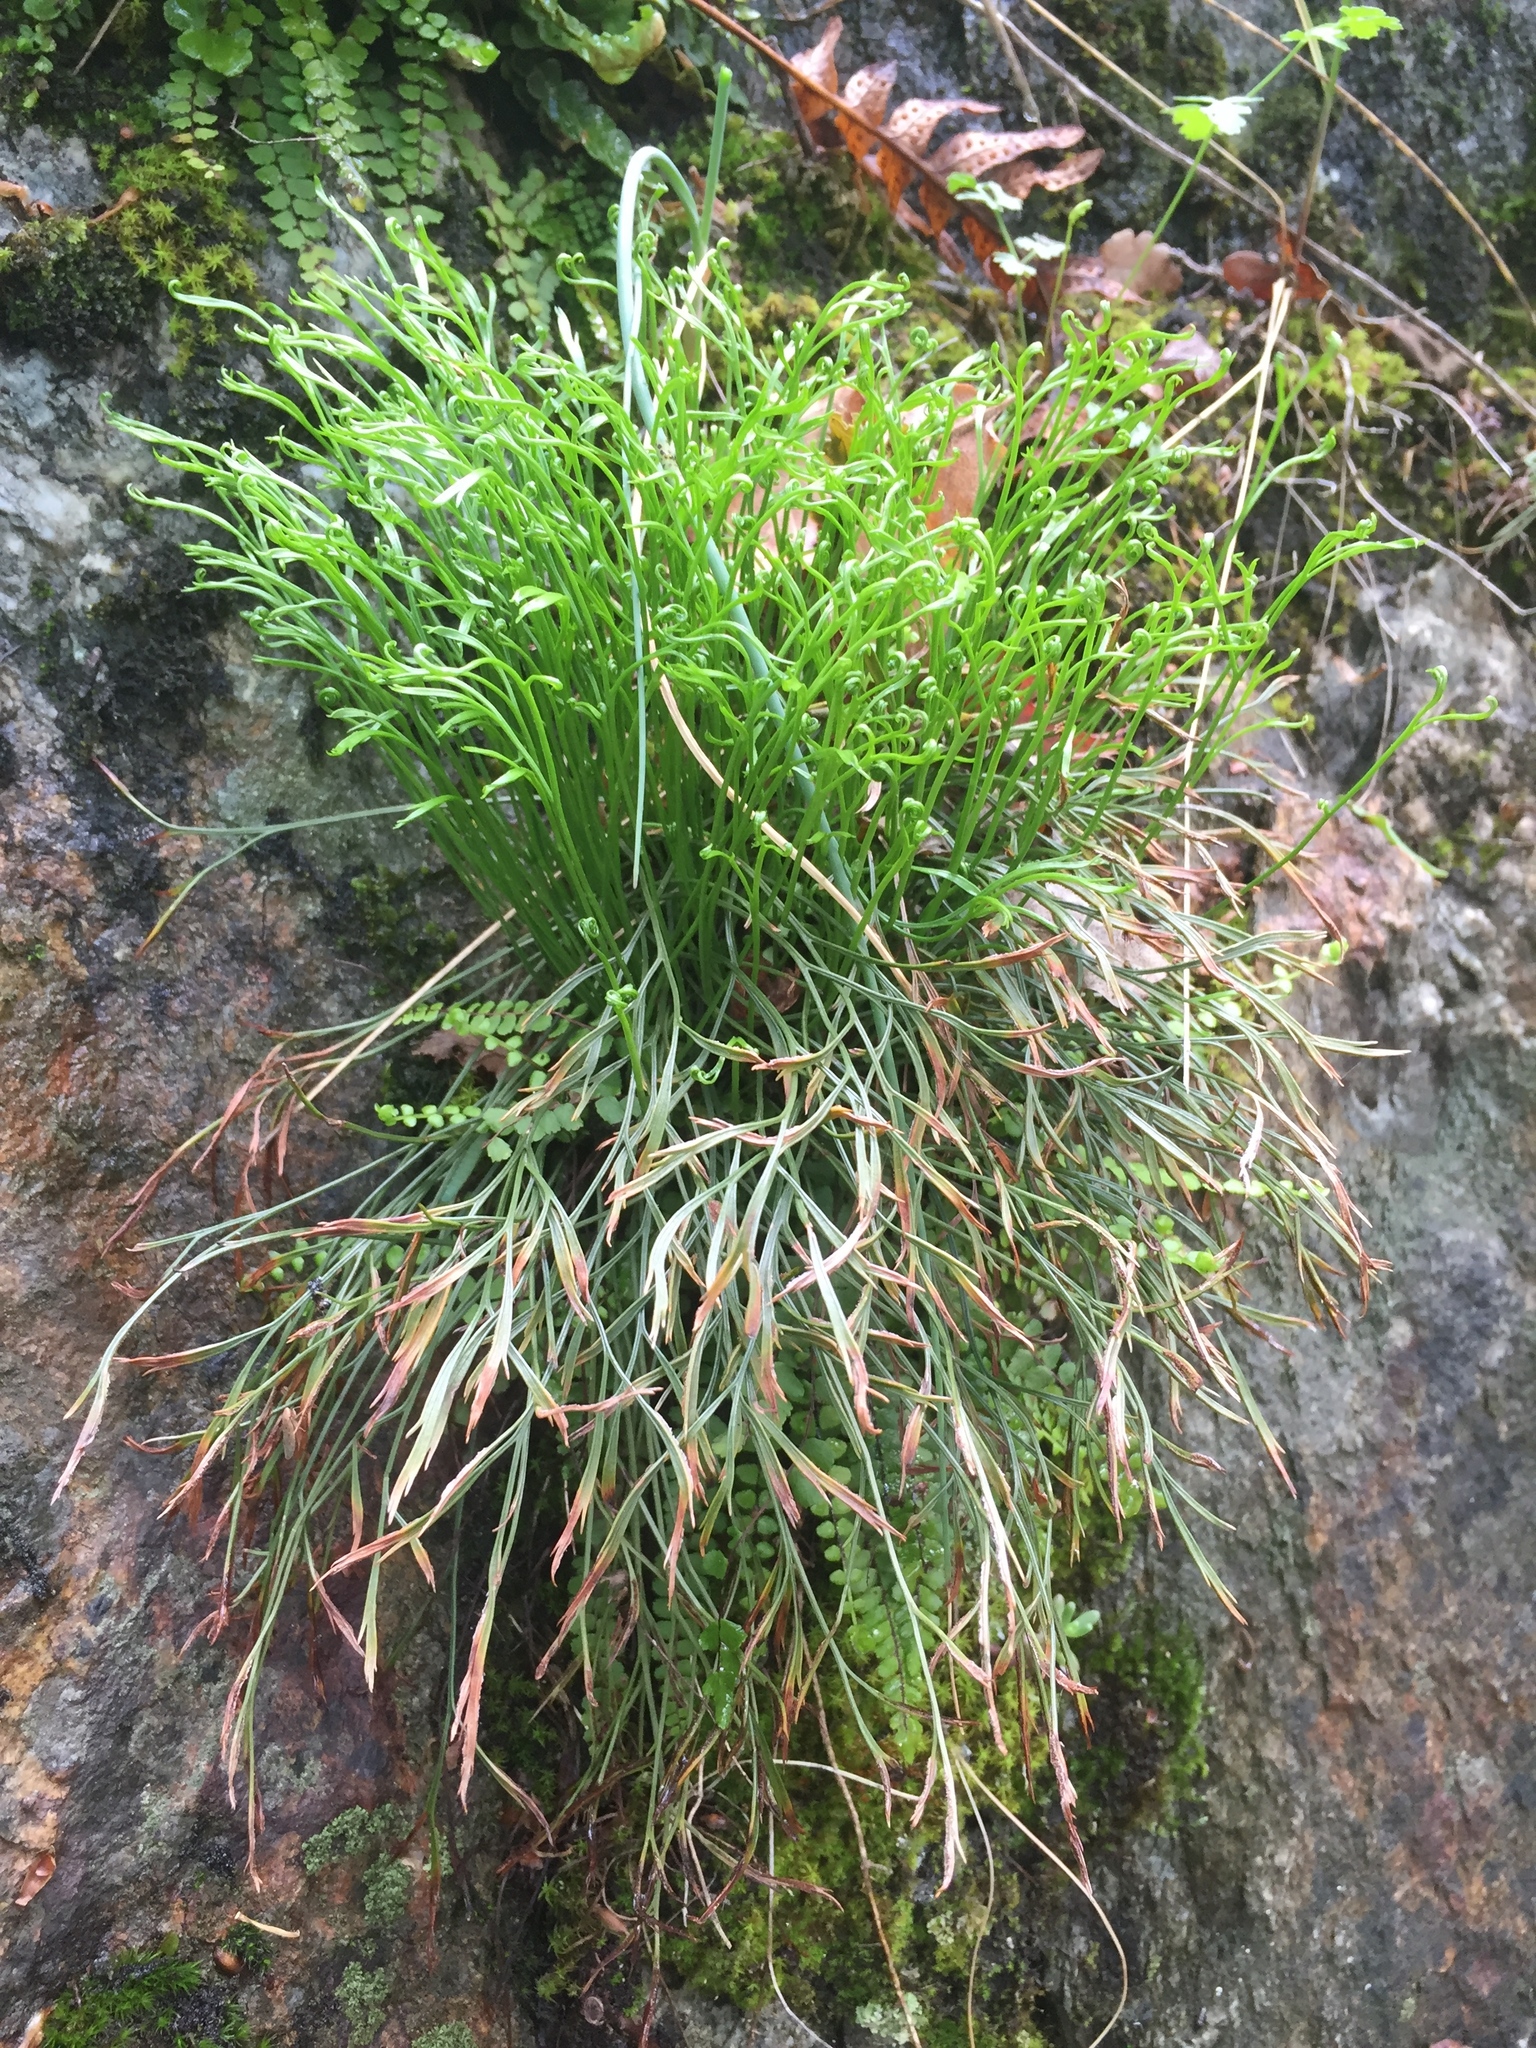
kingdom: Plantae
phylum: Tracheophyta
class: Polypodiopsida
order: Polypodiales
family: Aspleniaceae
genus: Asplenium
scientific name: Asplenium septentrionale
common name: Forked spleenwort
